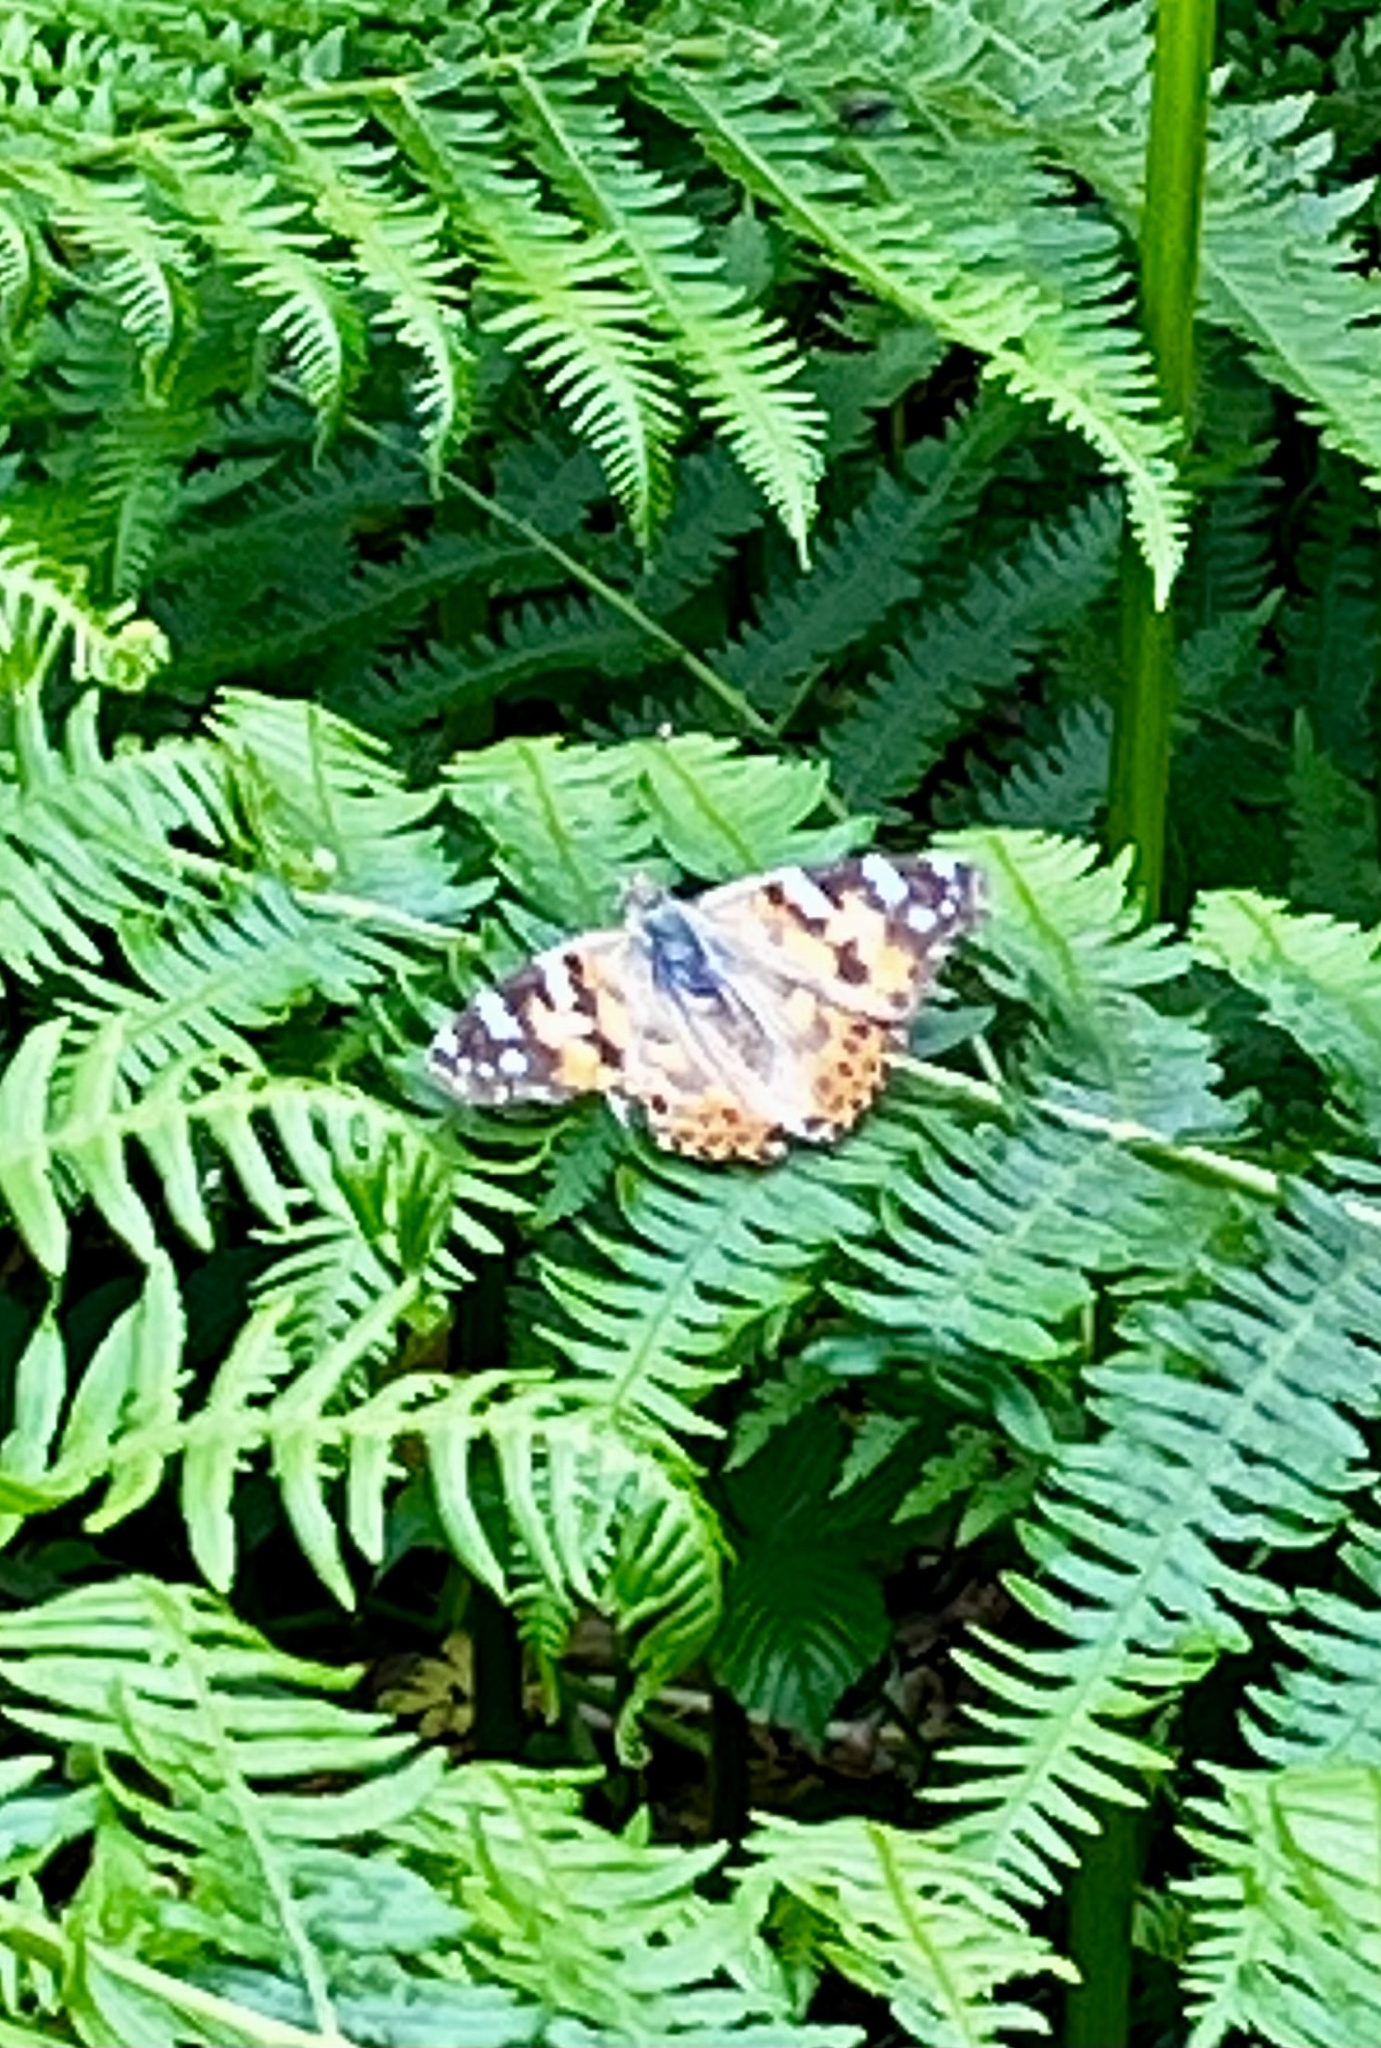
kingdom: Animalia
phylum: Arthropoda
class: Insecta
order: Lepidoptera
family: Nymphalidae
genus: Vanessa
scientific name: Vanessa cardui
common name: Painted lady
